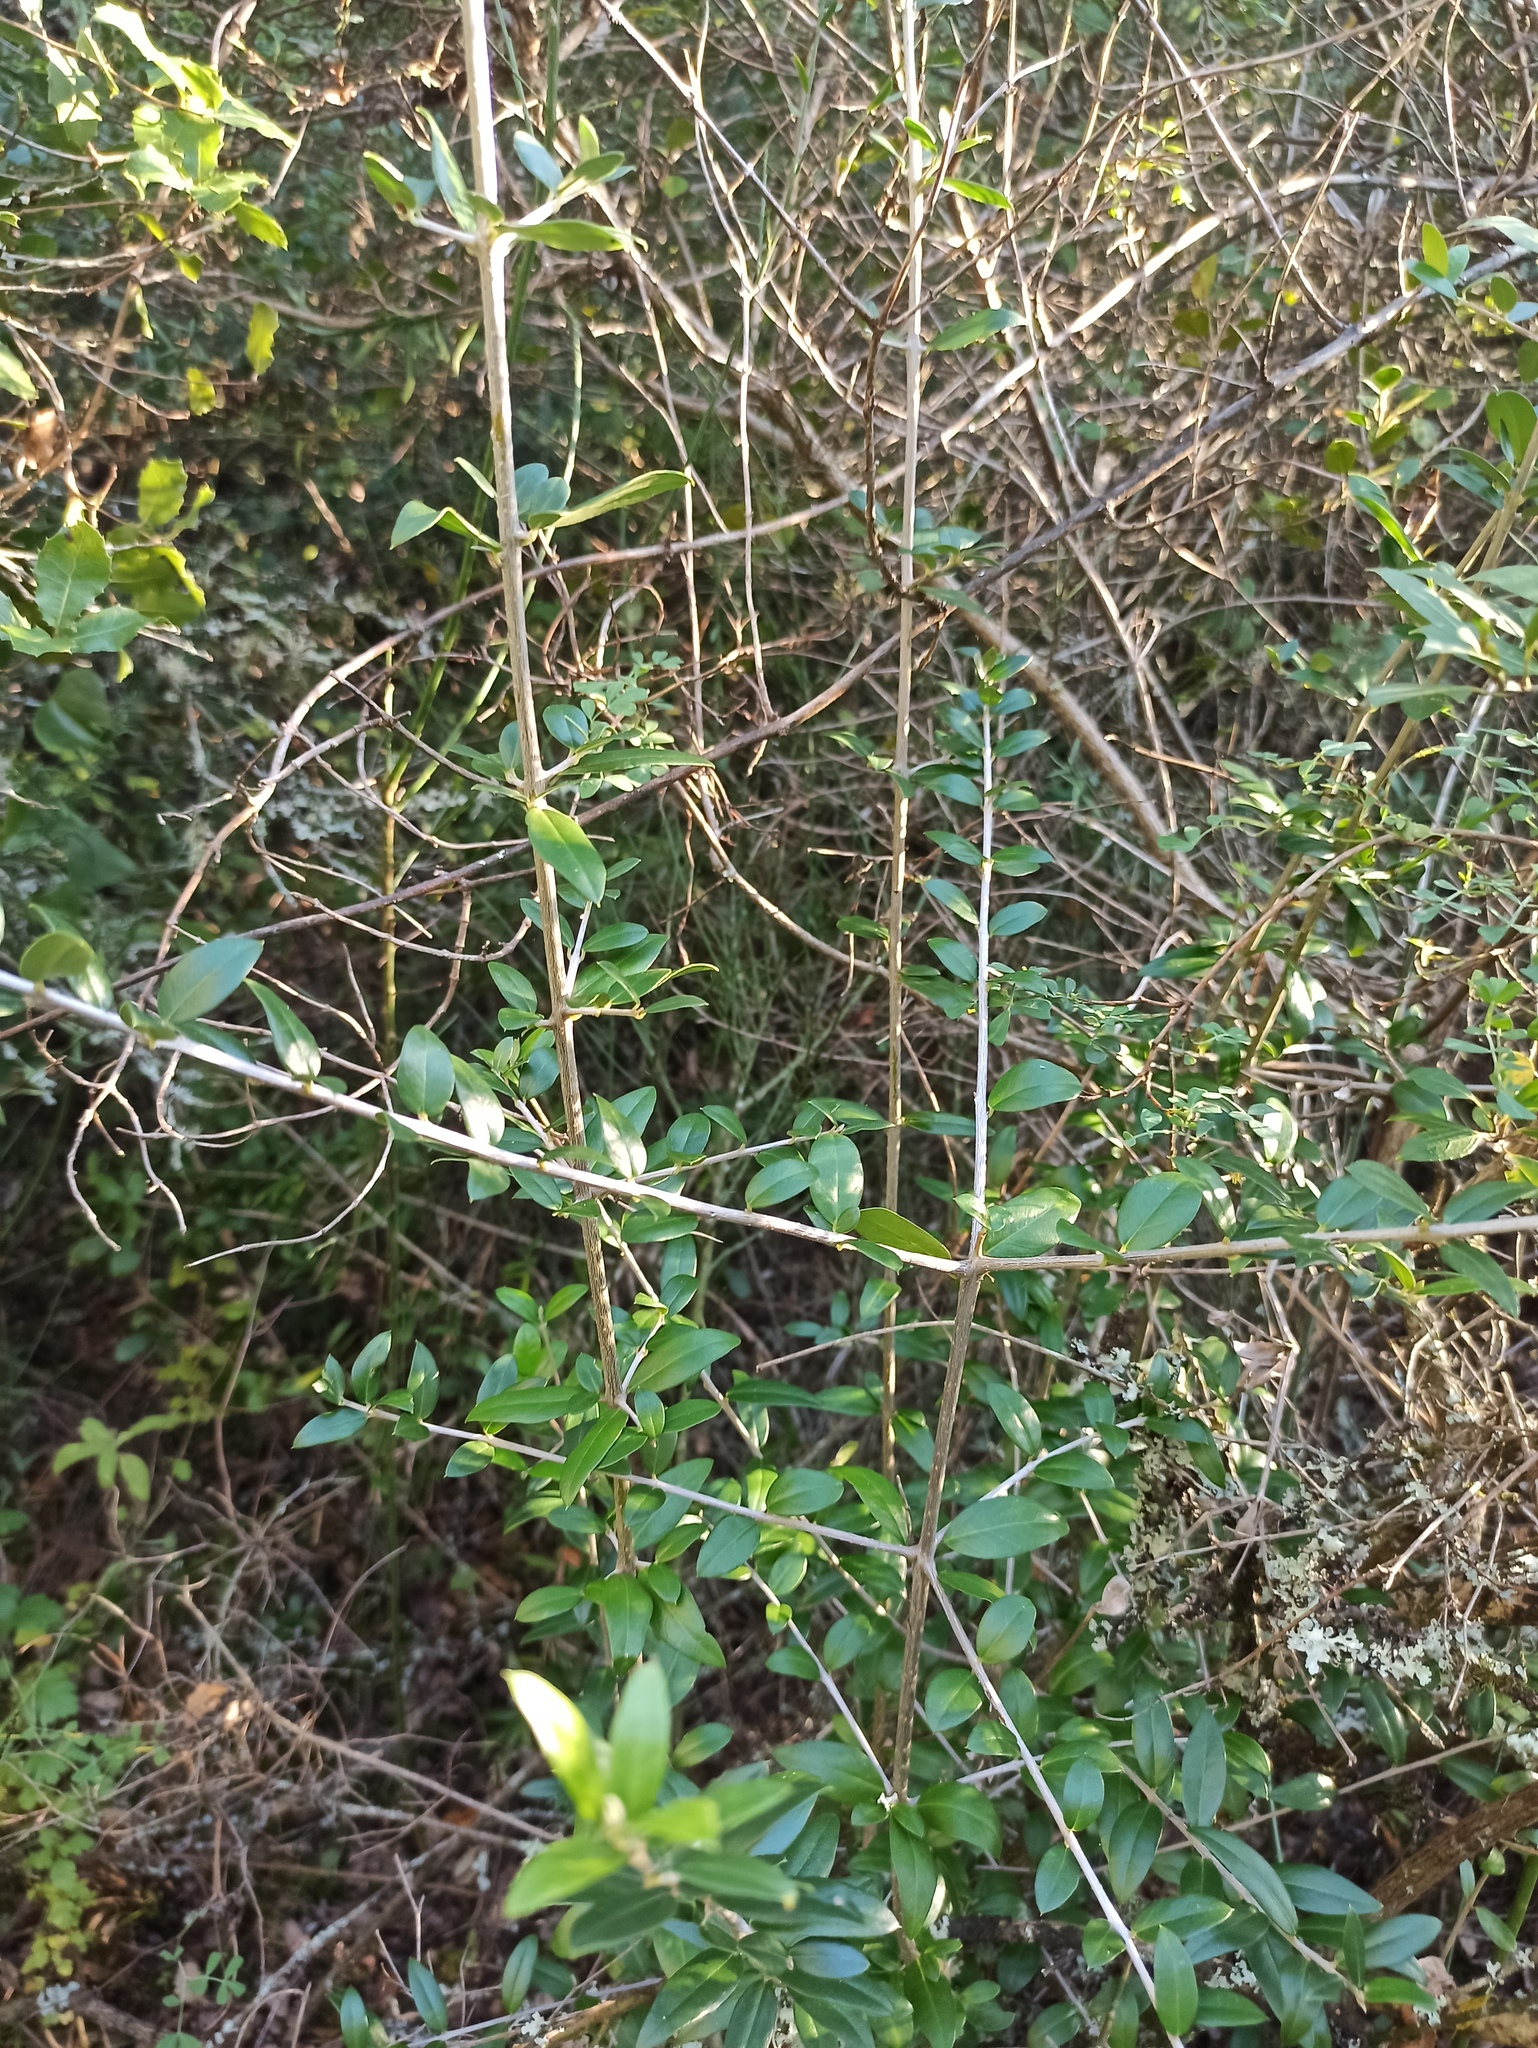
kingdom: Plantae
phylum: Tracheophyta
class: Magnoliopsida
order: Lamiales
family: Oleaceae
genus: Olea
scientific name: Olea europaea
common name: Olive
